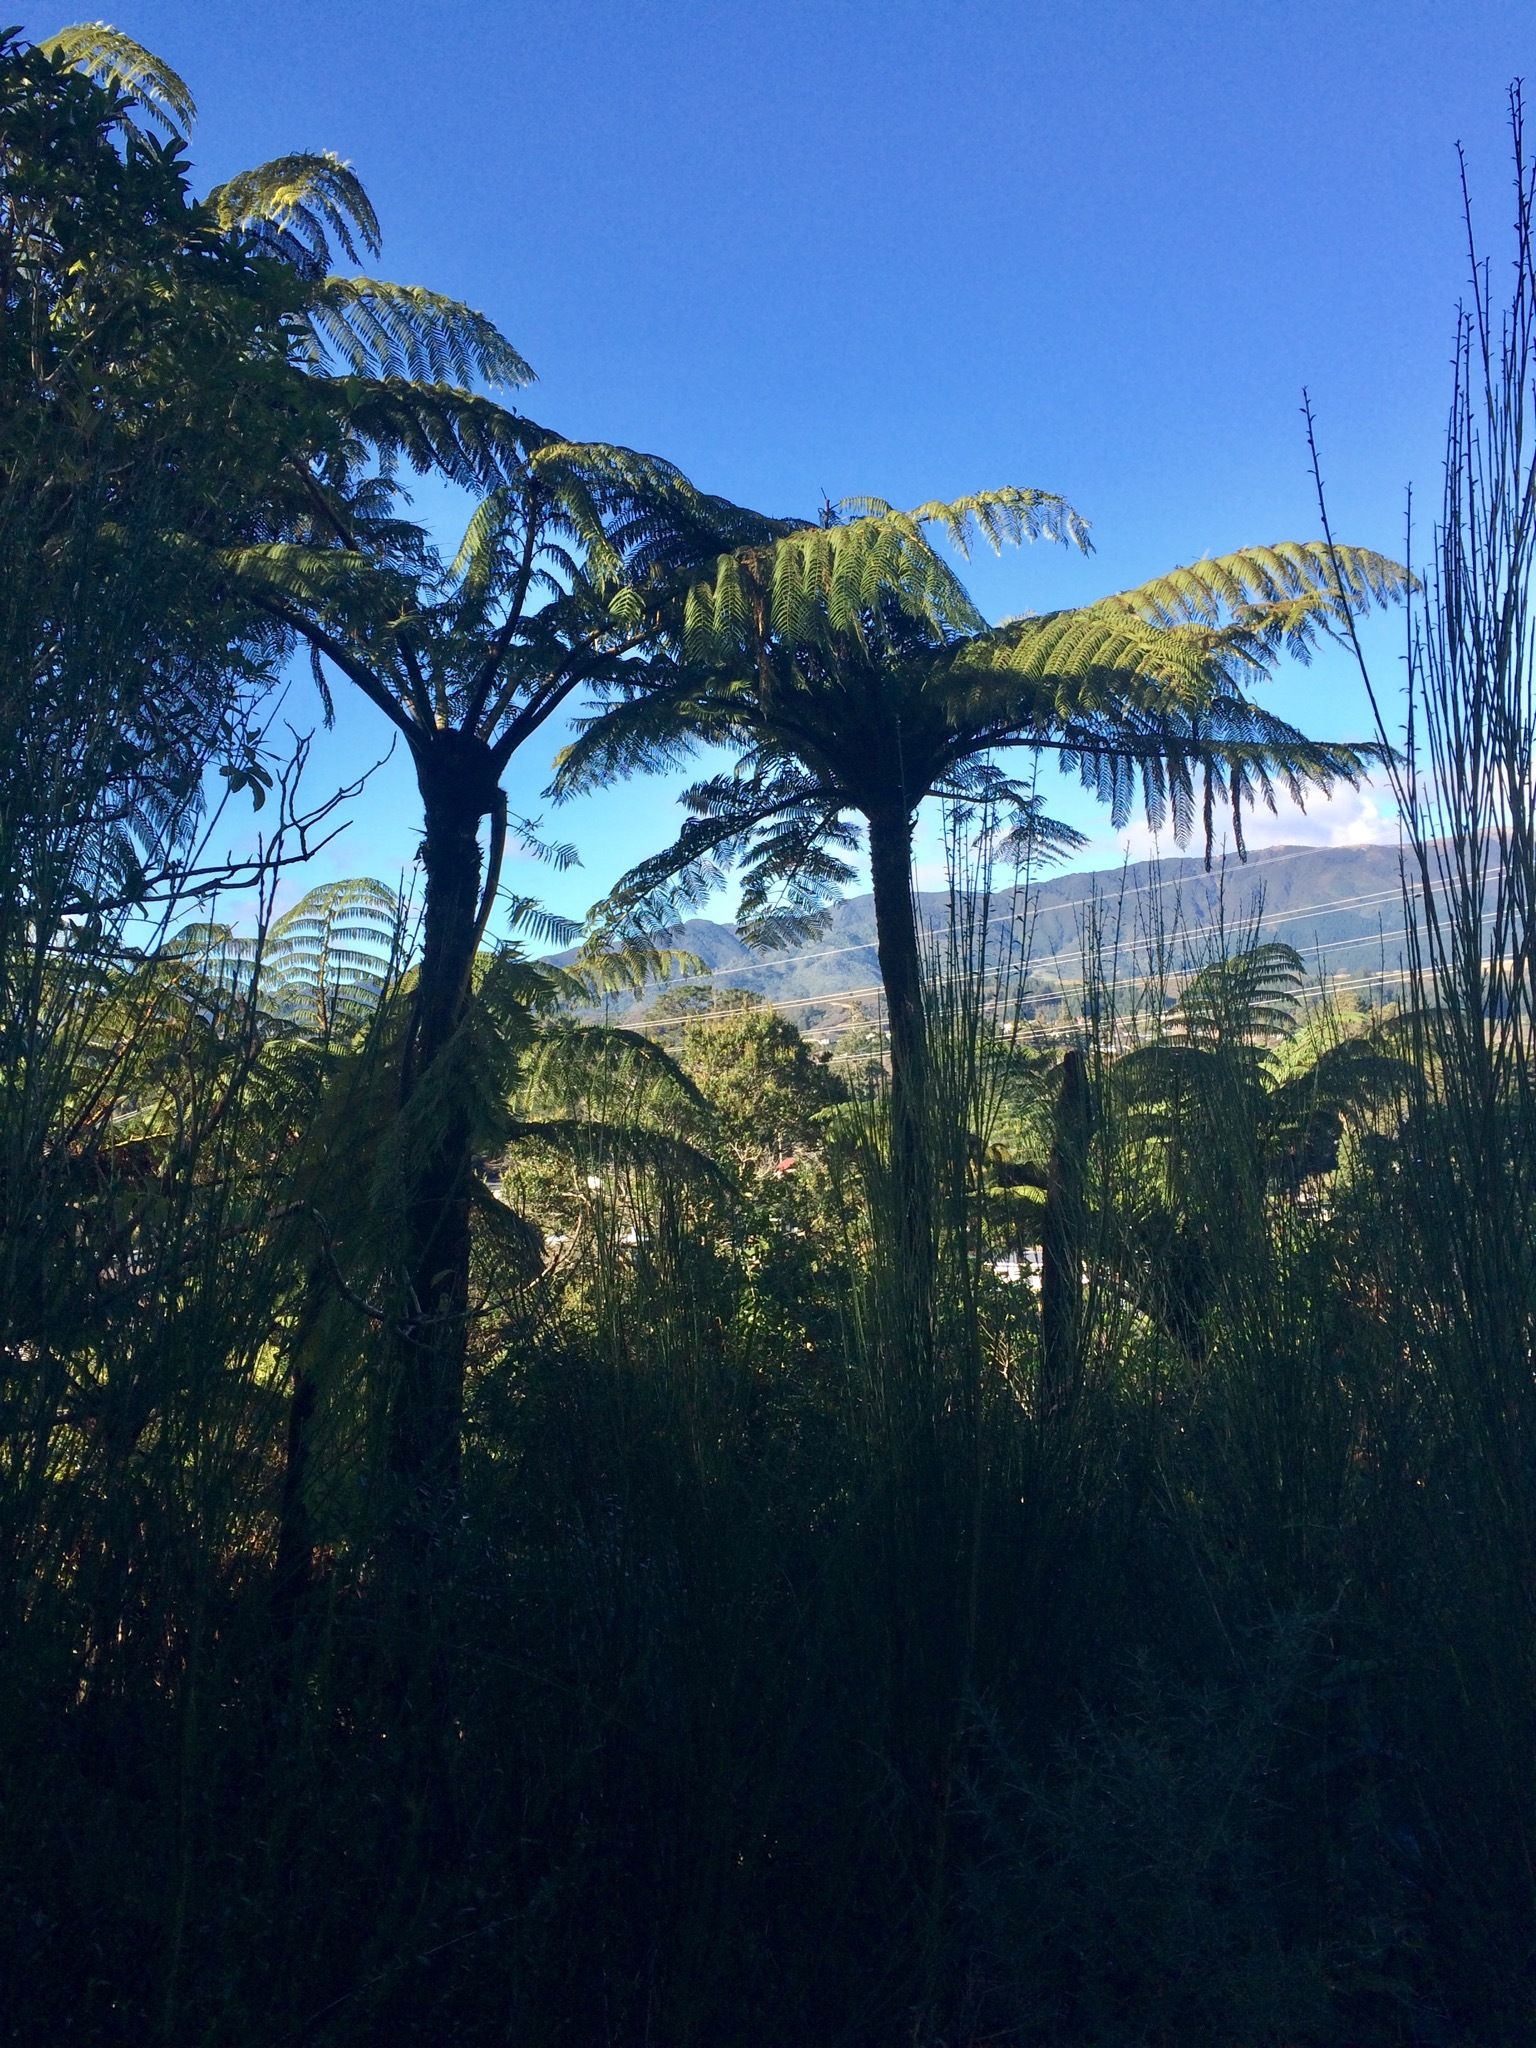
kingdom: Plantae
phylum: Tracheophyta
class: Polypodiopsida
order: Cyatheales
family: Cyatheaceae
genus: Sphaeropteris
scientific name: Sphaeropteris medullaris
